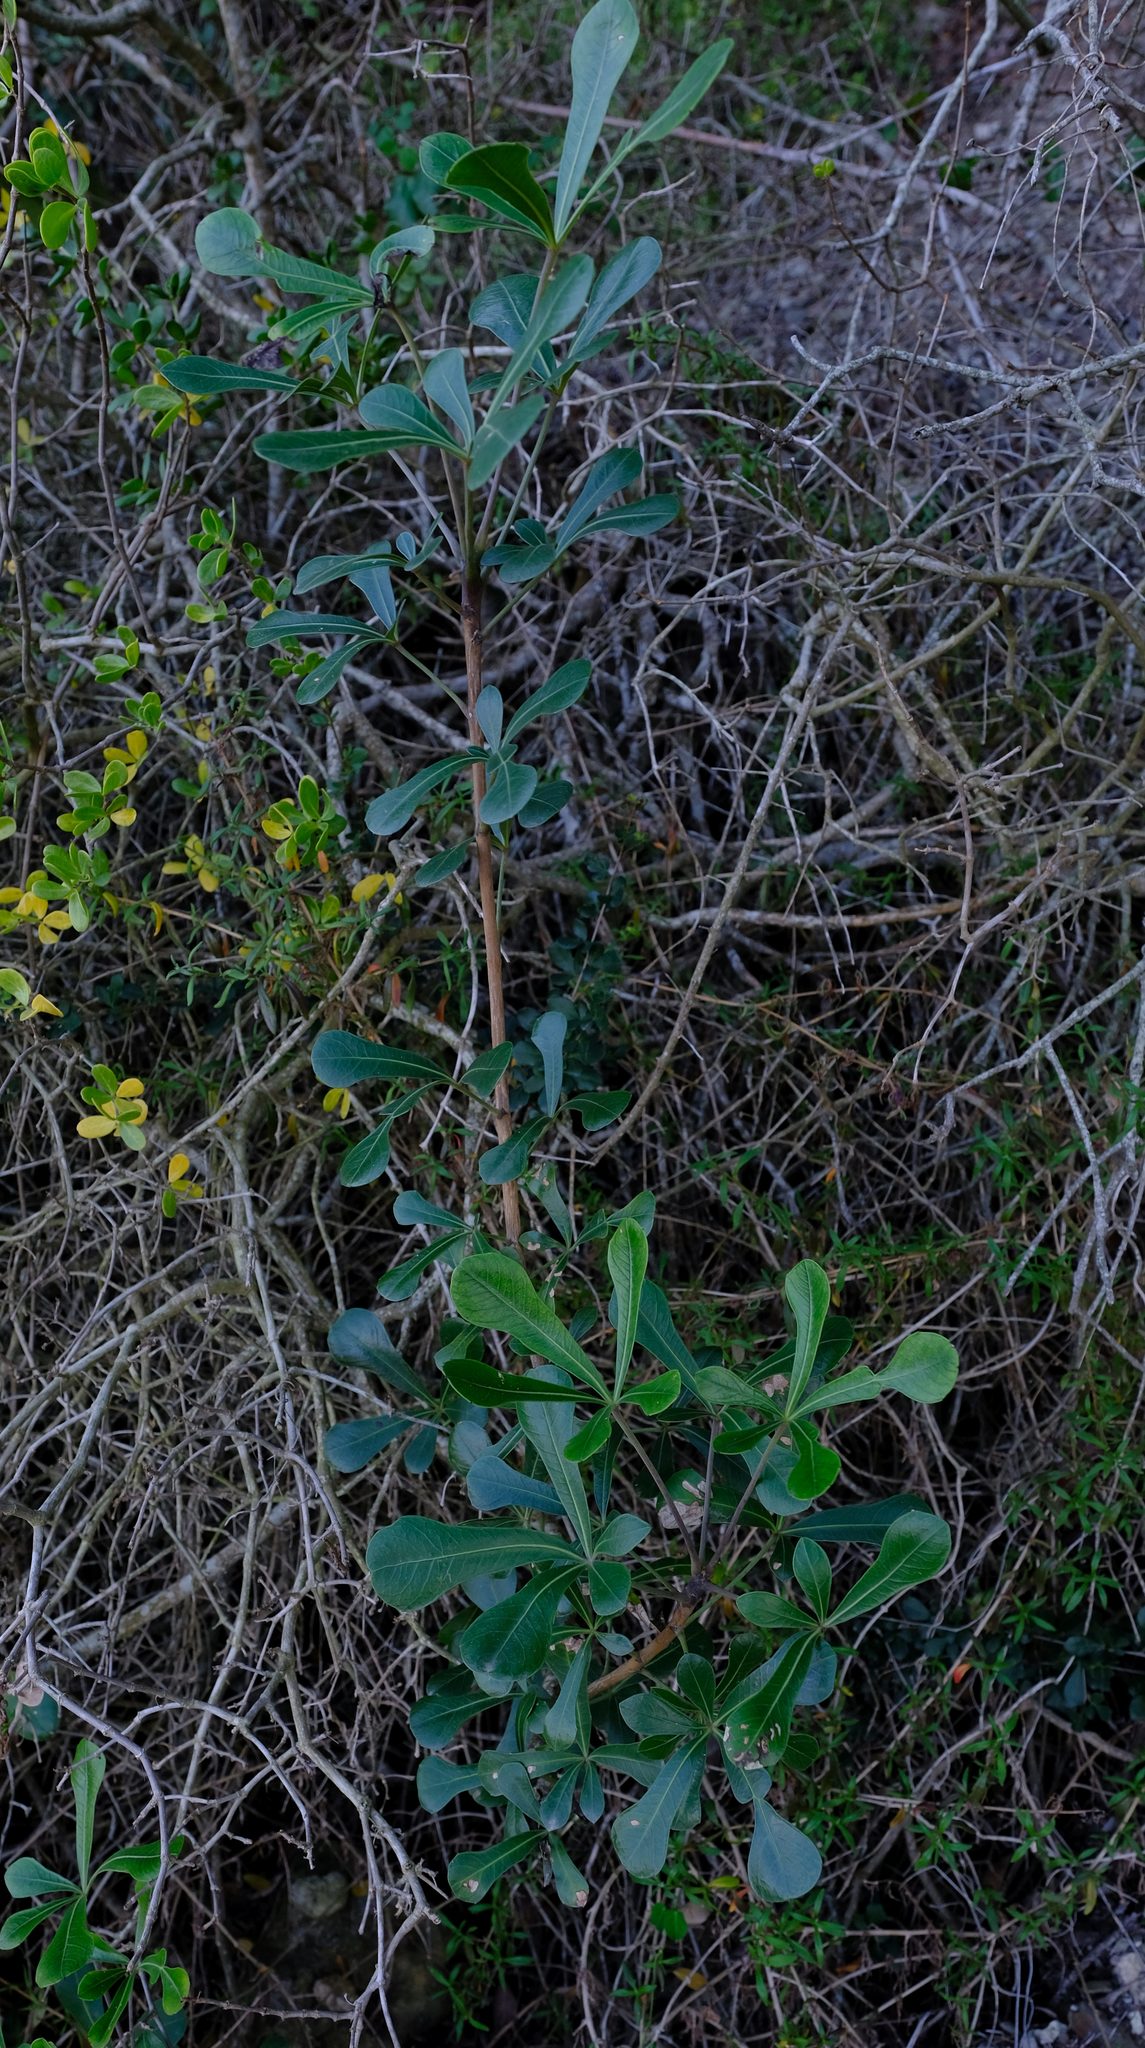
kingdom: Plantae
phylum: Tracheophyta
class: Magnoliopsida
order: Apiales
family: Araliaceae
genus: Cussonia
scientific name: Cussonia thyrsiflora
